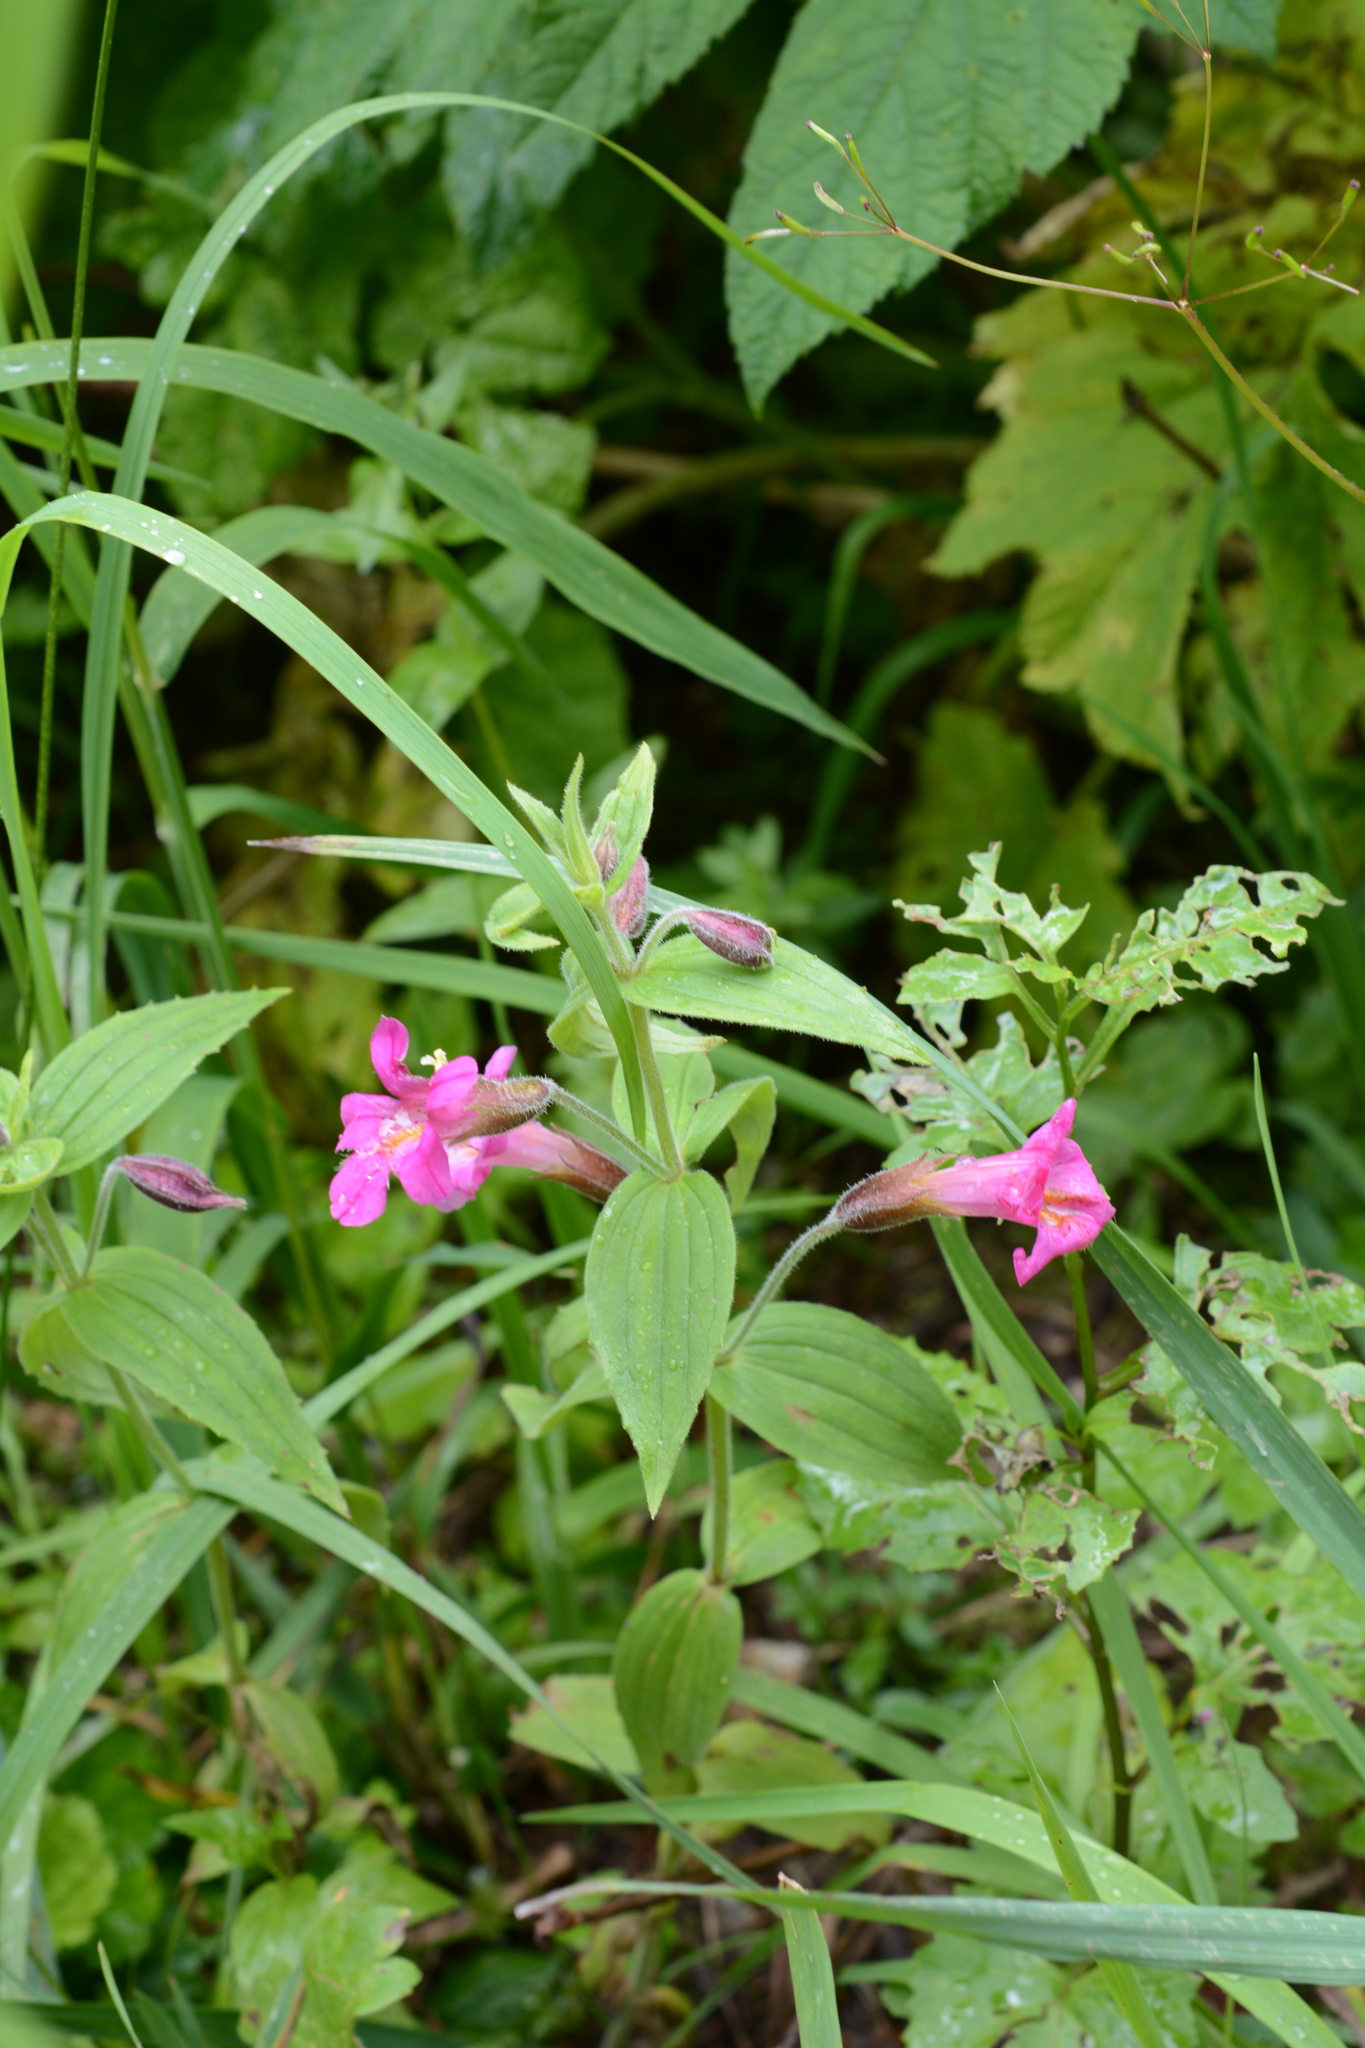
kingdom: Plantae
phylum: Tracheophyta
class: Magnoliopsida
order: Lamiales
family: Phrymaceae
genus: Erythranthe
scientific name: Erythranthe lewisii
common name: Lewis's monkey-flower
